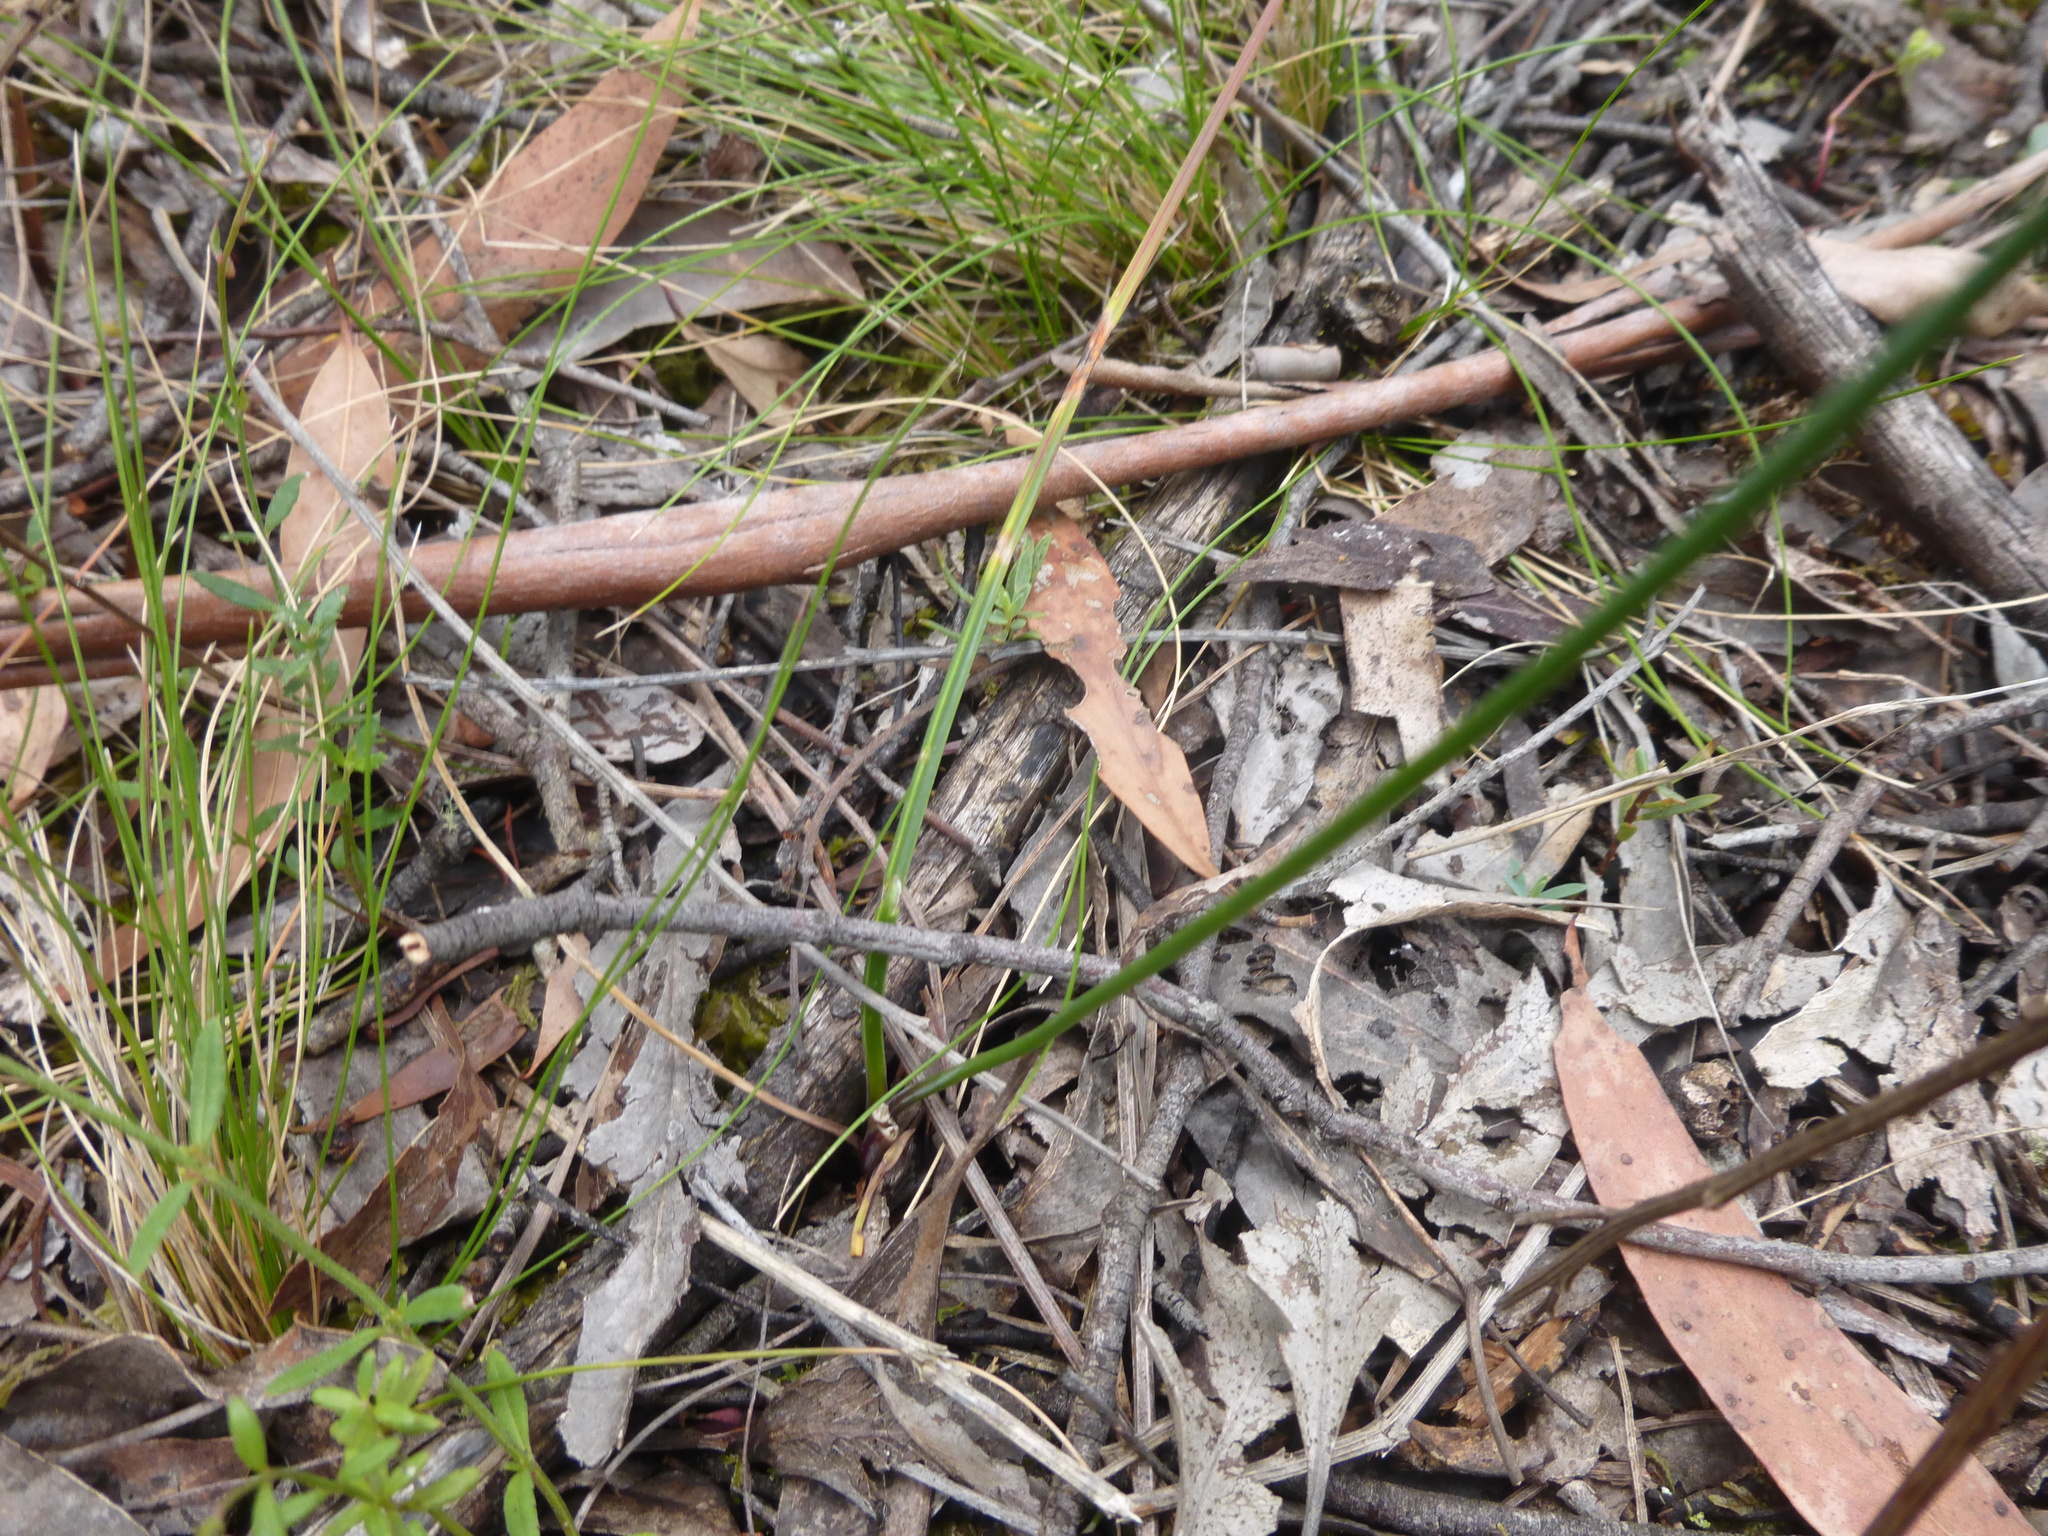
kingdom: Plantae
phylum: Tracheophyta
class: Liliopsida
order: Asparagales
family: Asparagaceae
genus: Thysanotus
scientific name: Thysanotus tuberosus
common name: Common fringed-lily
